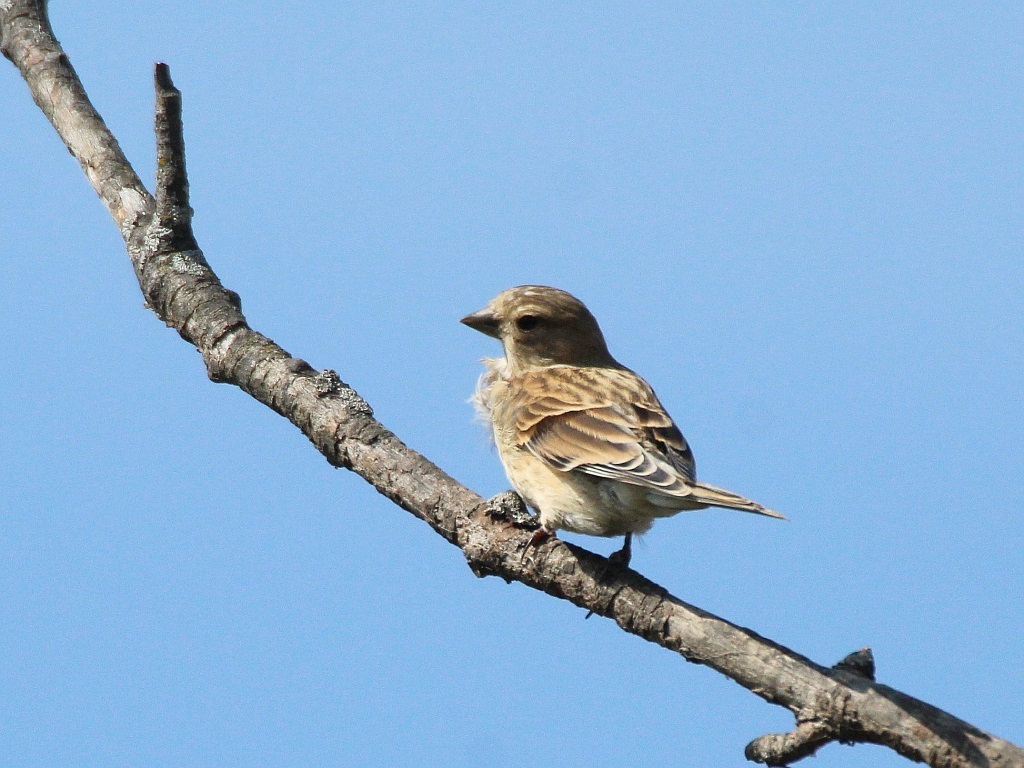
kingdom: Animalia
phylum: Chordata
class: Aves
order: Passeriformes
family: Fringillidae
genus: Linaria
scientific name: Linaria cannabina
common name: Common linnet
